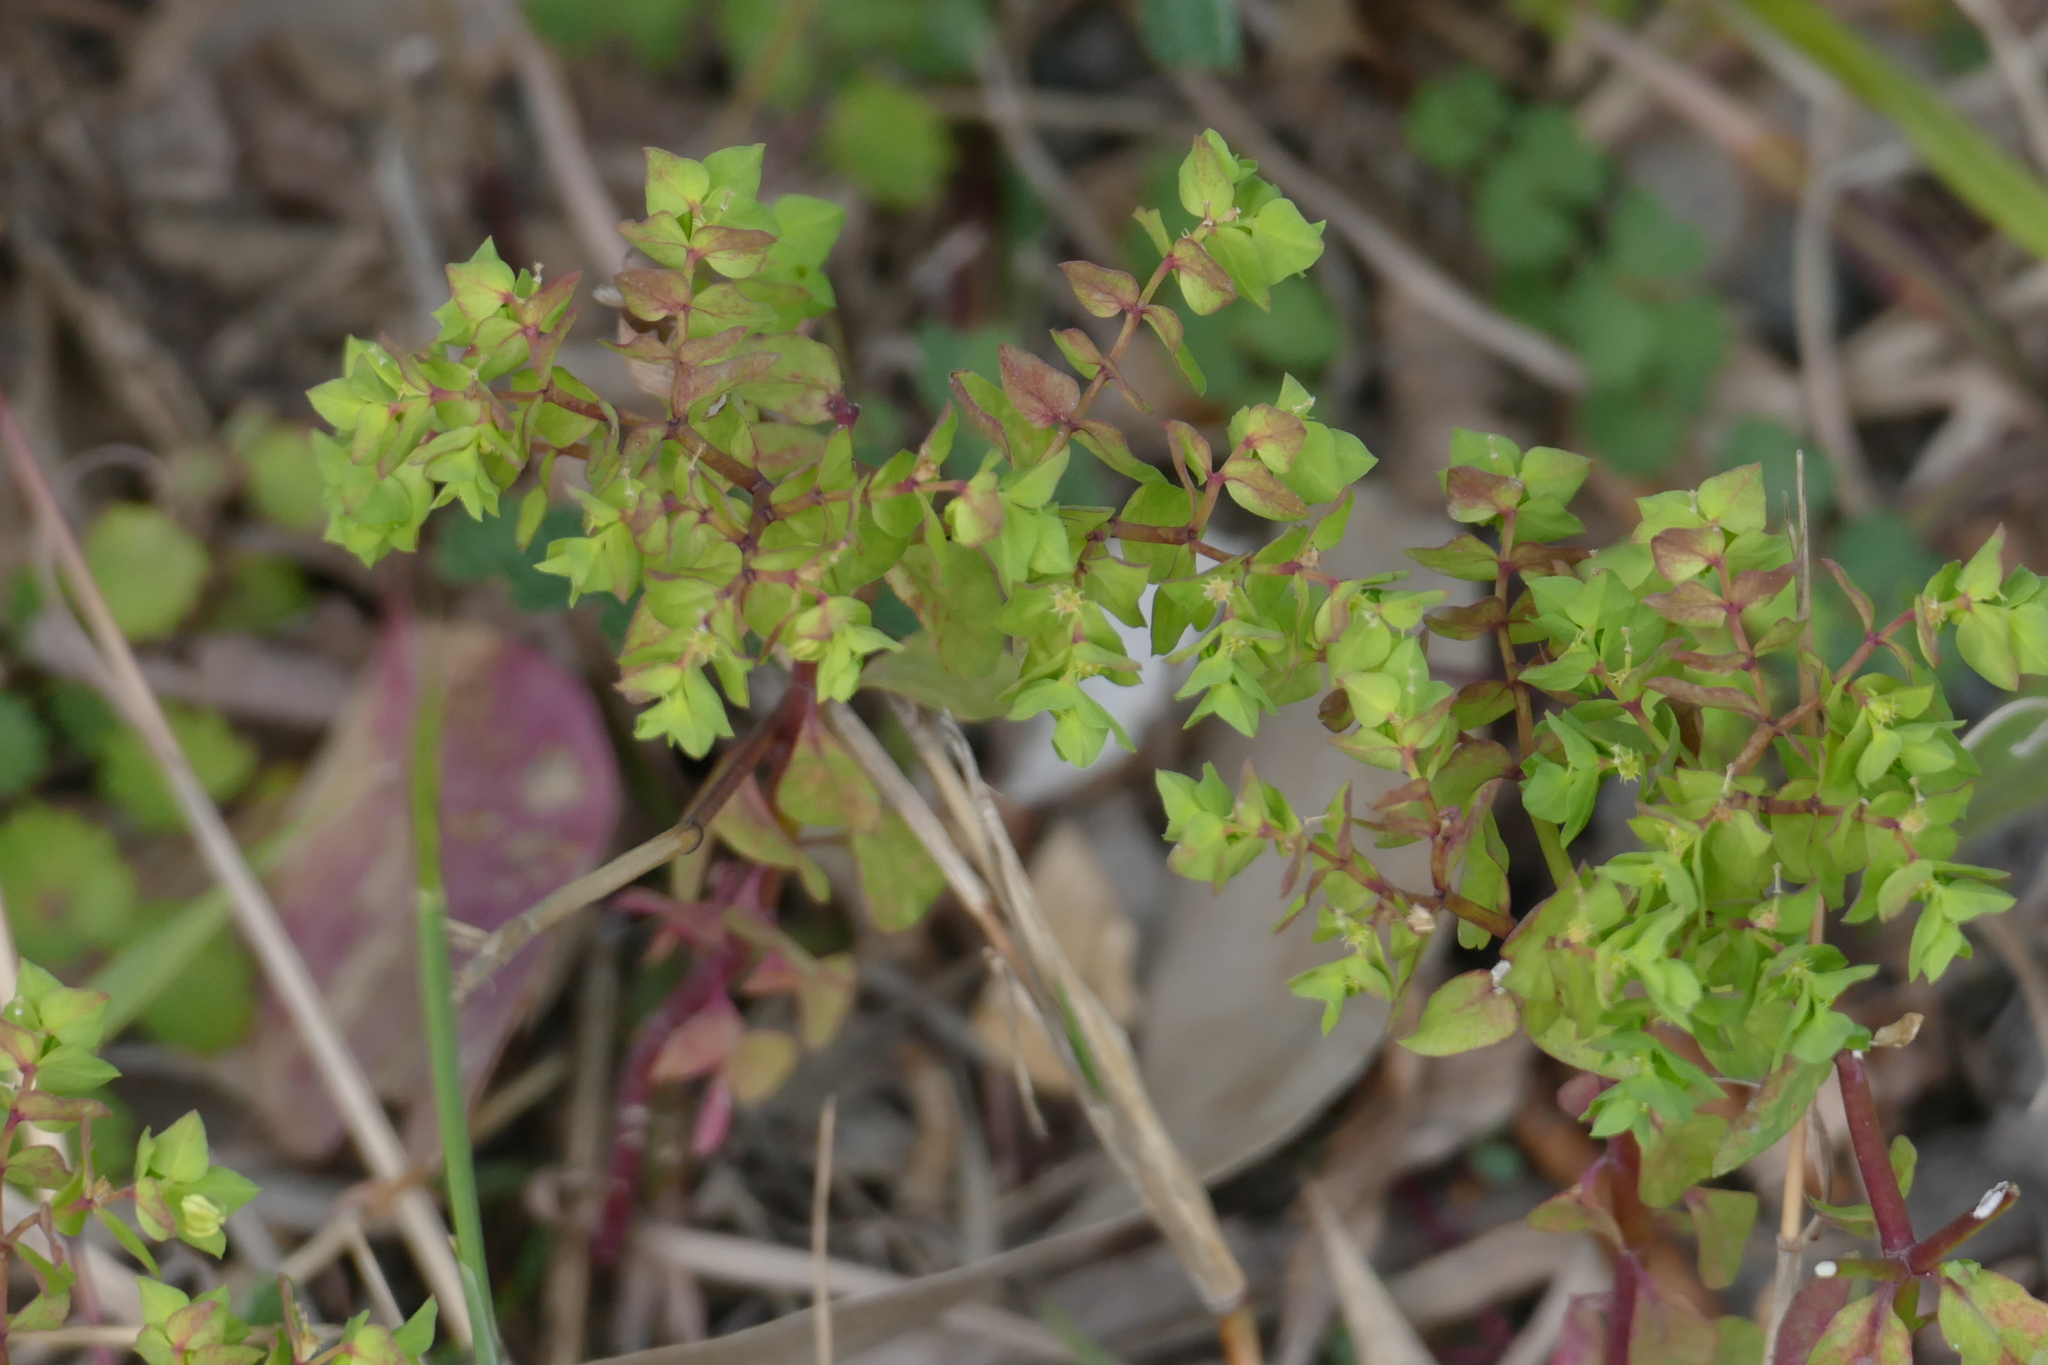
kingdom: Plantae
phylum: Tracheophyta
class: Magnoliopsida
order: Malpighiales
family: Euphorbiaceae
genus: Euphorbia
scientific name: Euphorbia peplus
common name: Petty spurge
